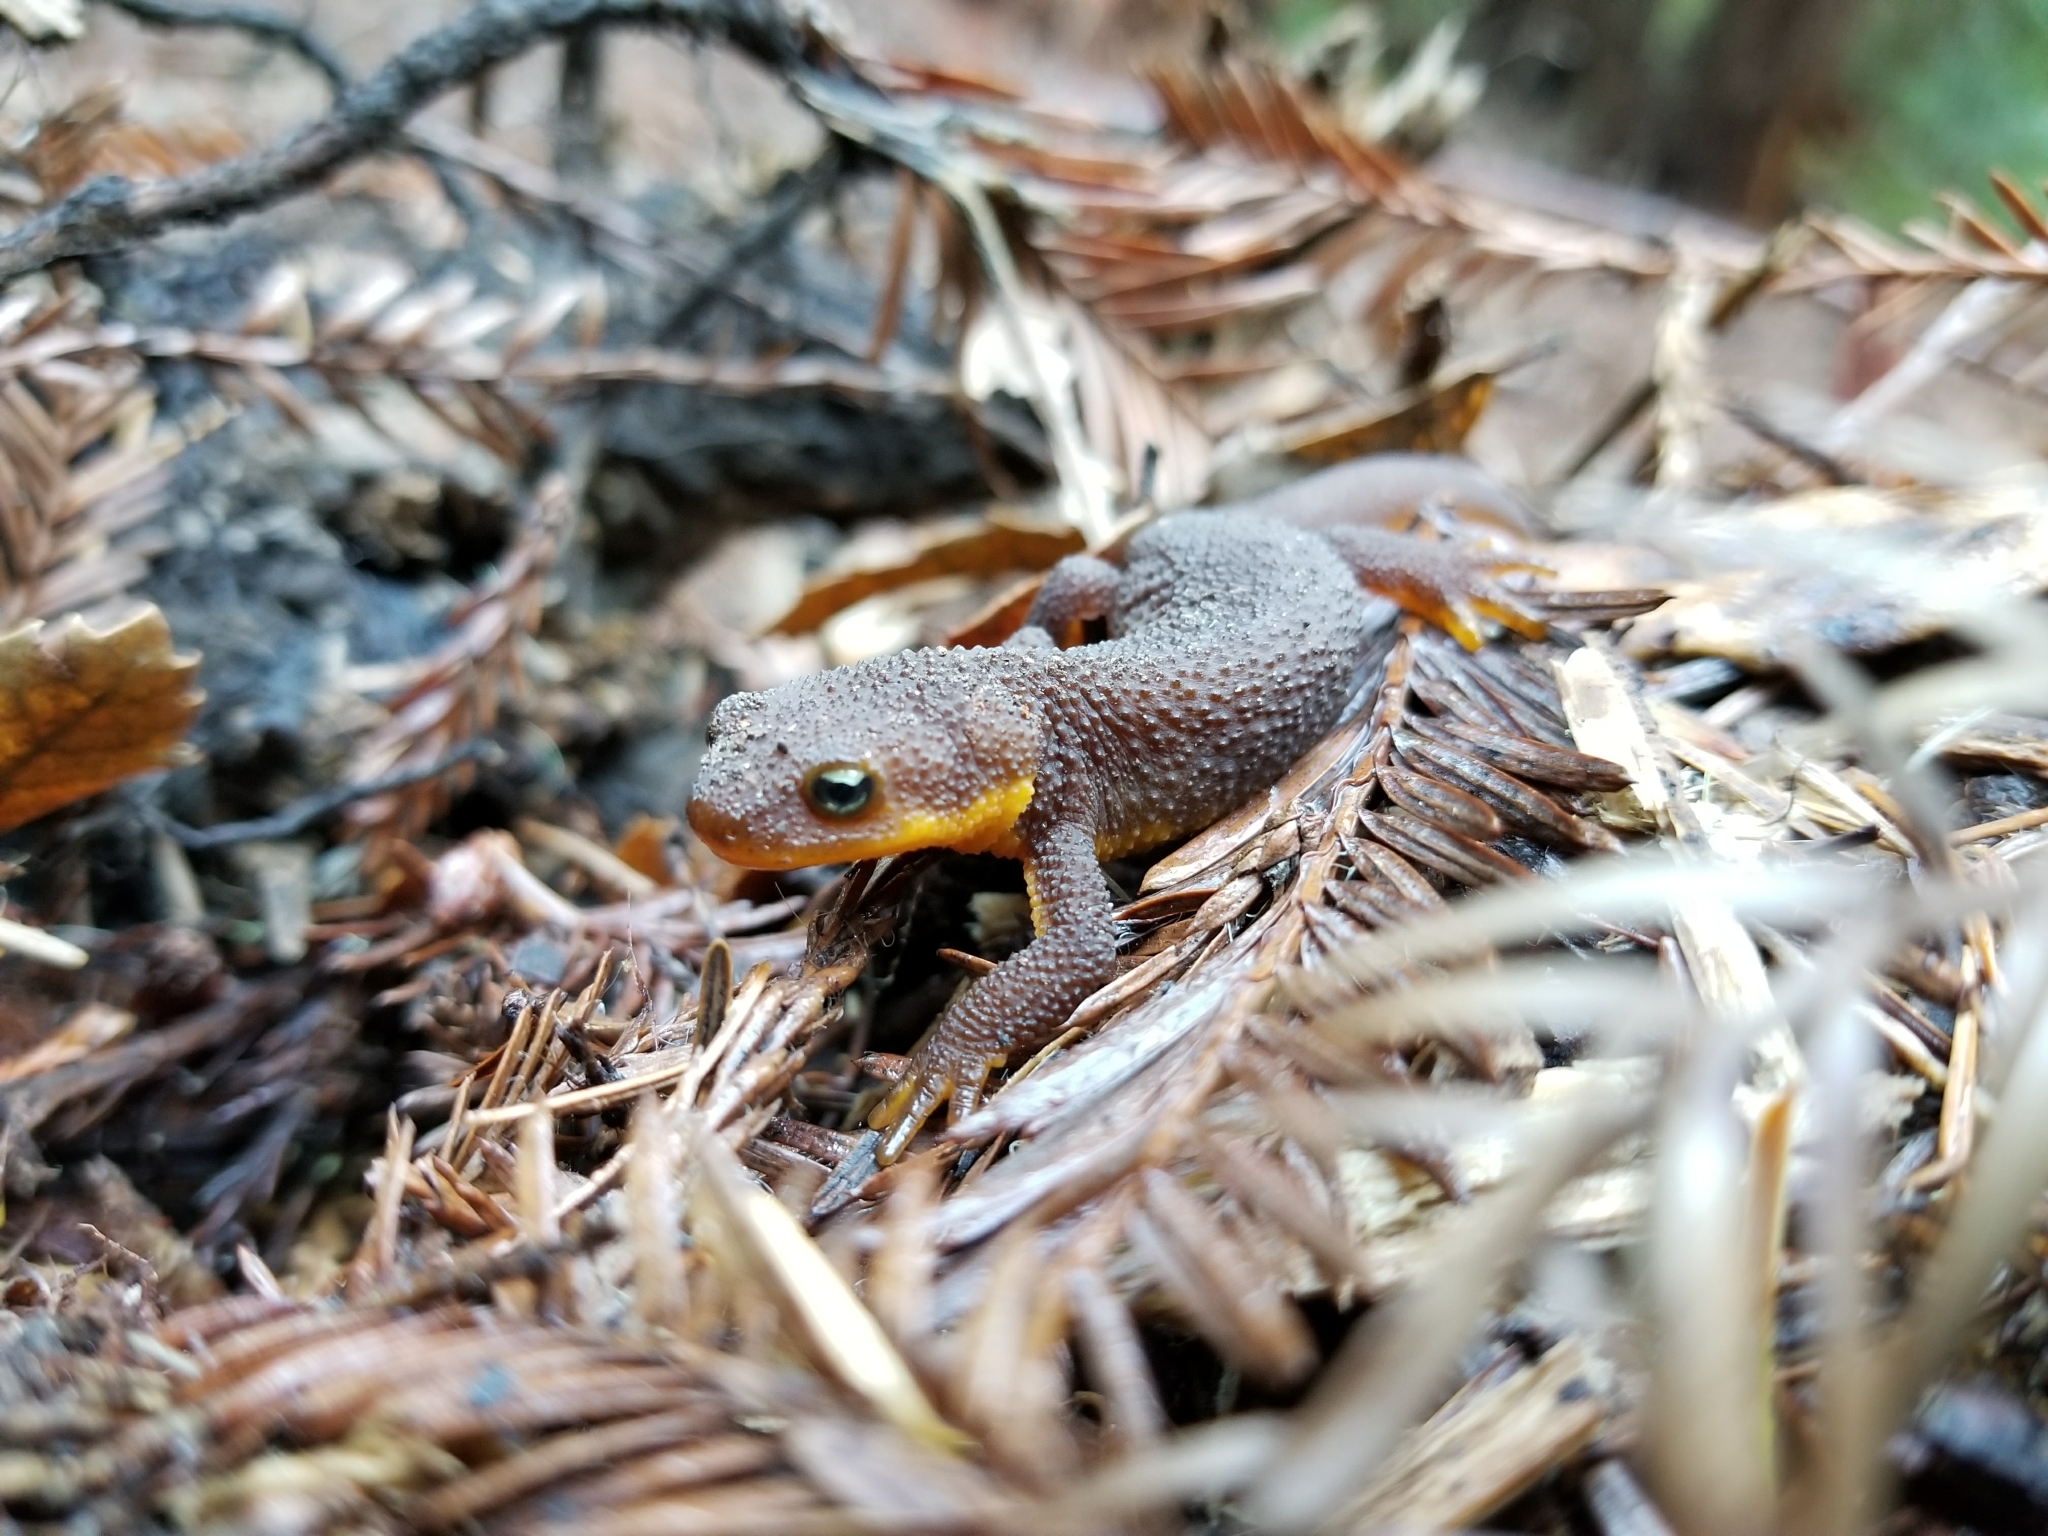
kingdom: Animalia
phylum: Chordata
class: Amphibia
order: Caudata
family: Salamandridae
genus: Taricha
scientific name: Taricha granulosa
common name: Roughskin newt
